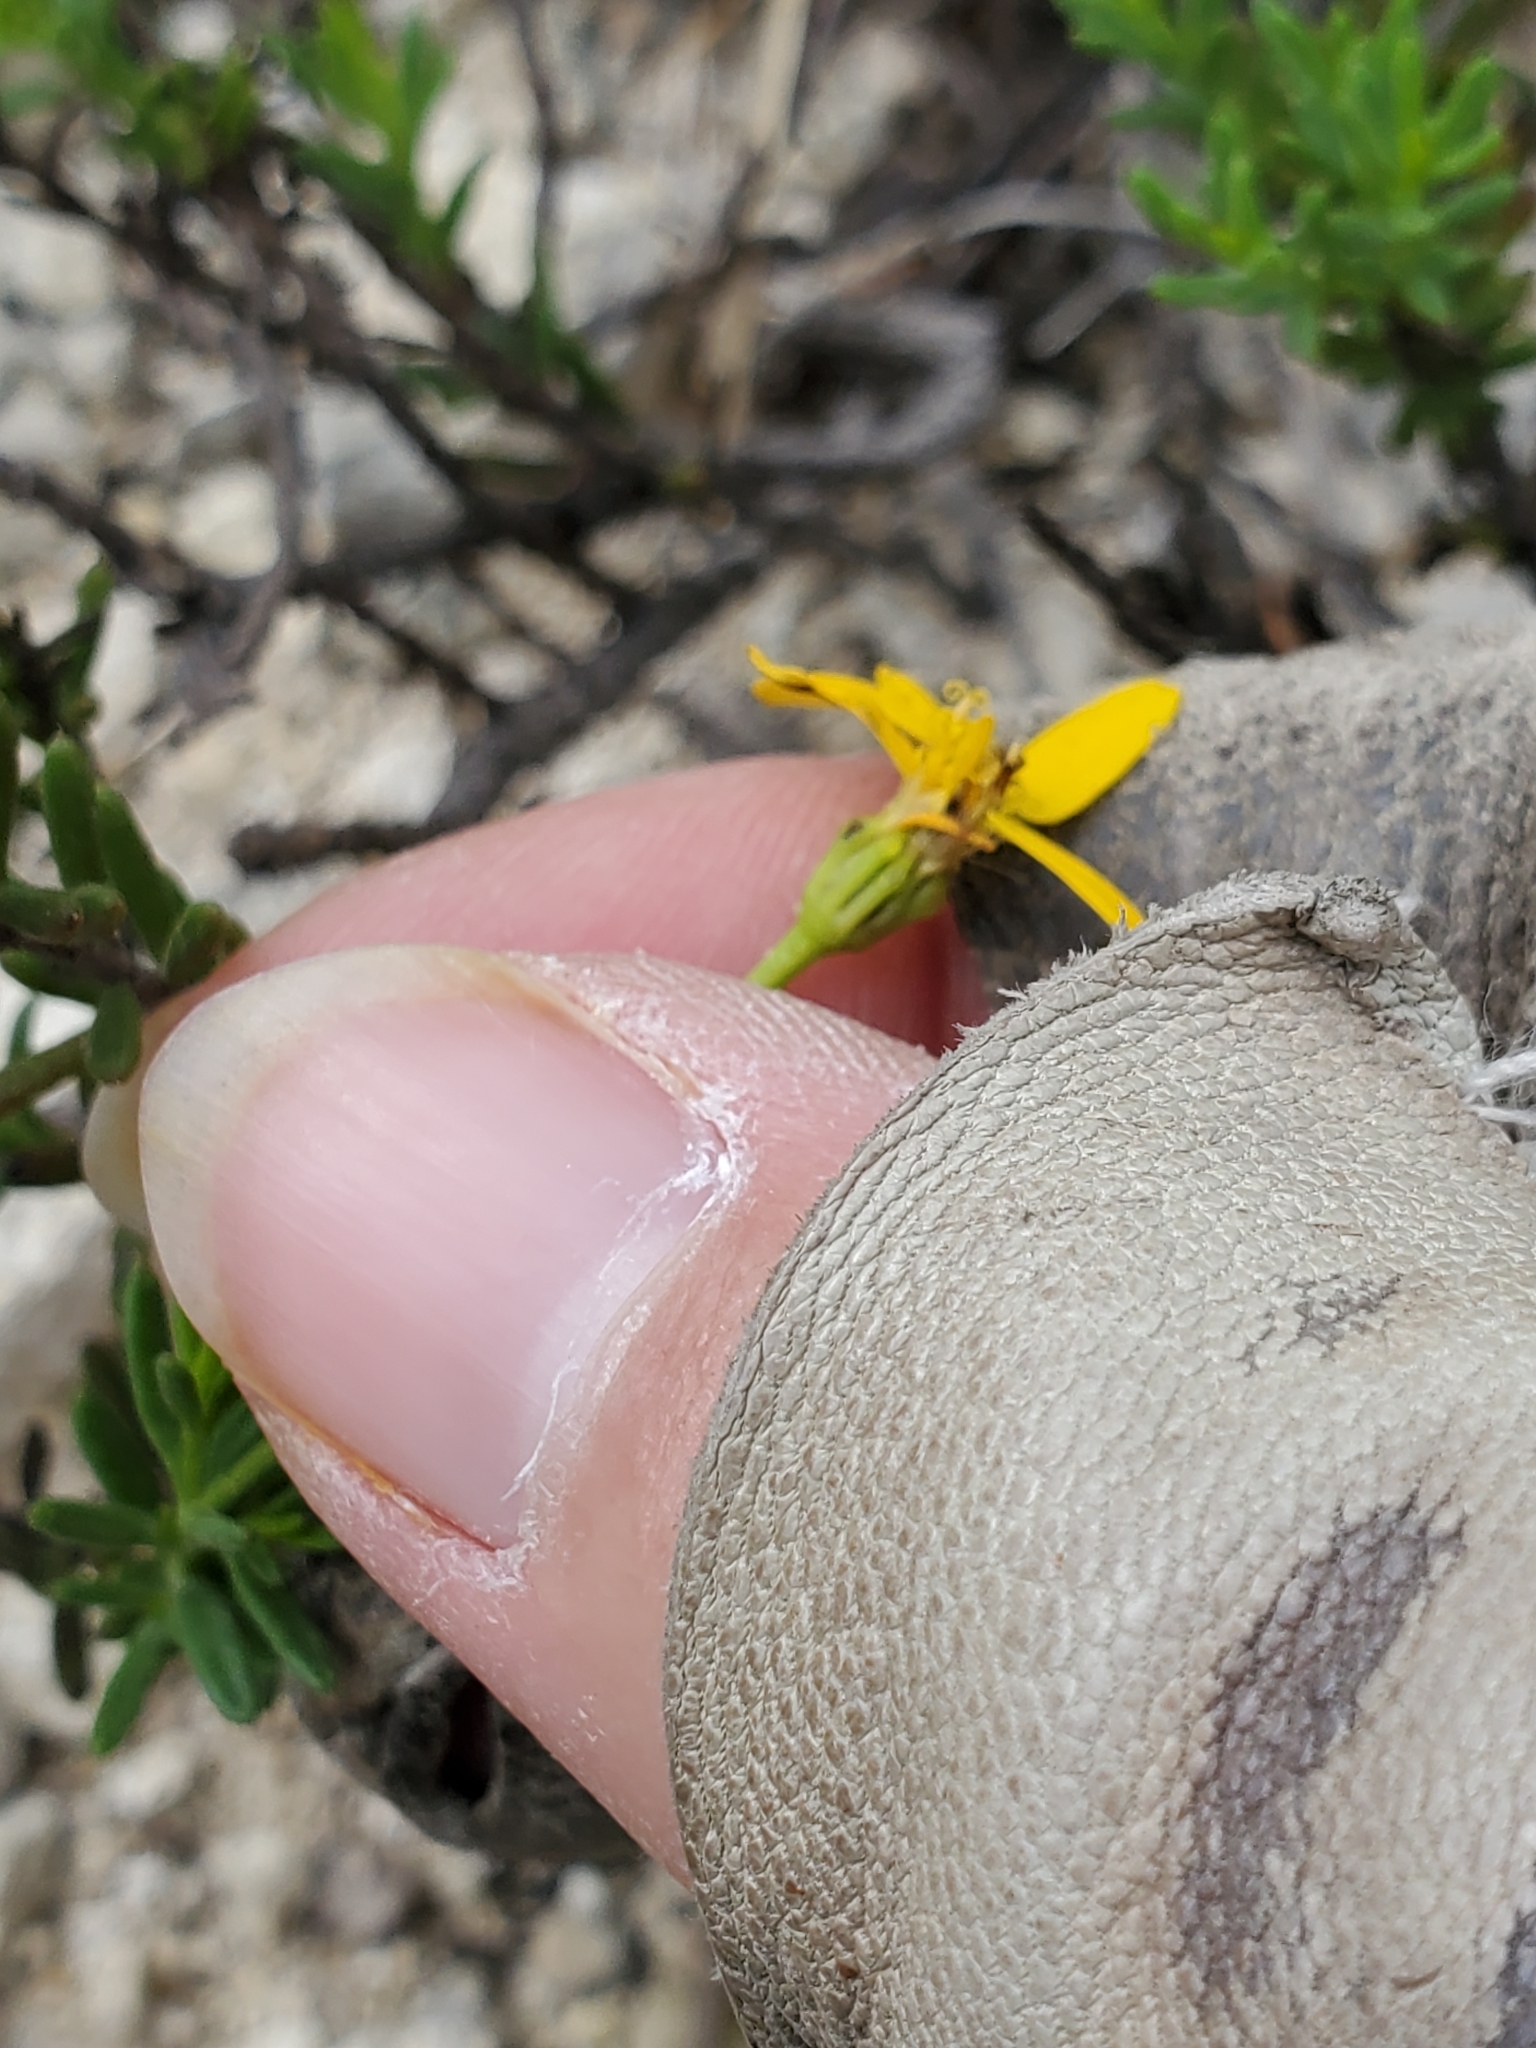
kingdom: Plantae
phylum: Tracheophyta
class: Magnoliopsida
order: Asterales
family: Asteraceae
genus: Chrysactinia
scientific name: Chrysactinia mexicana
